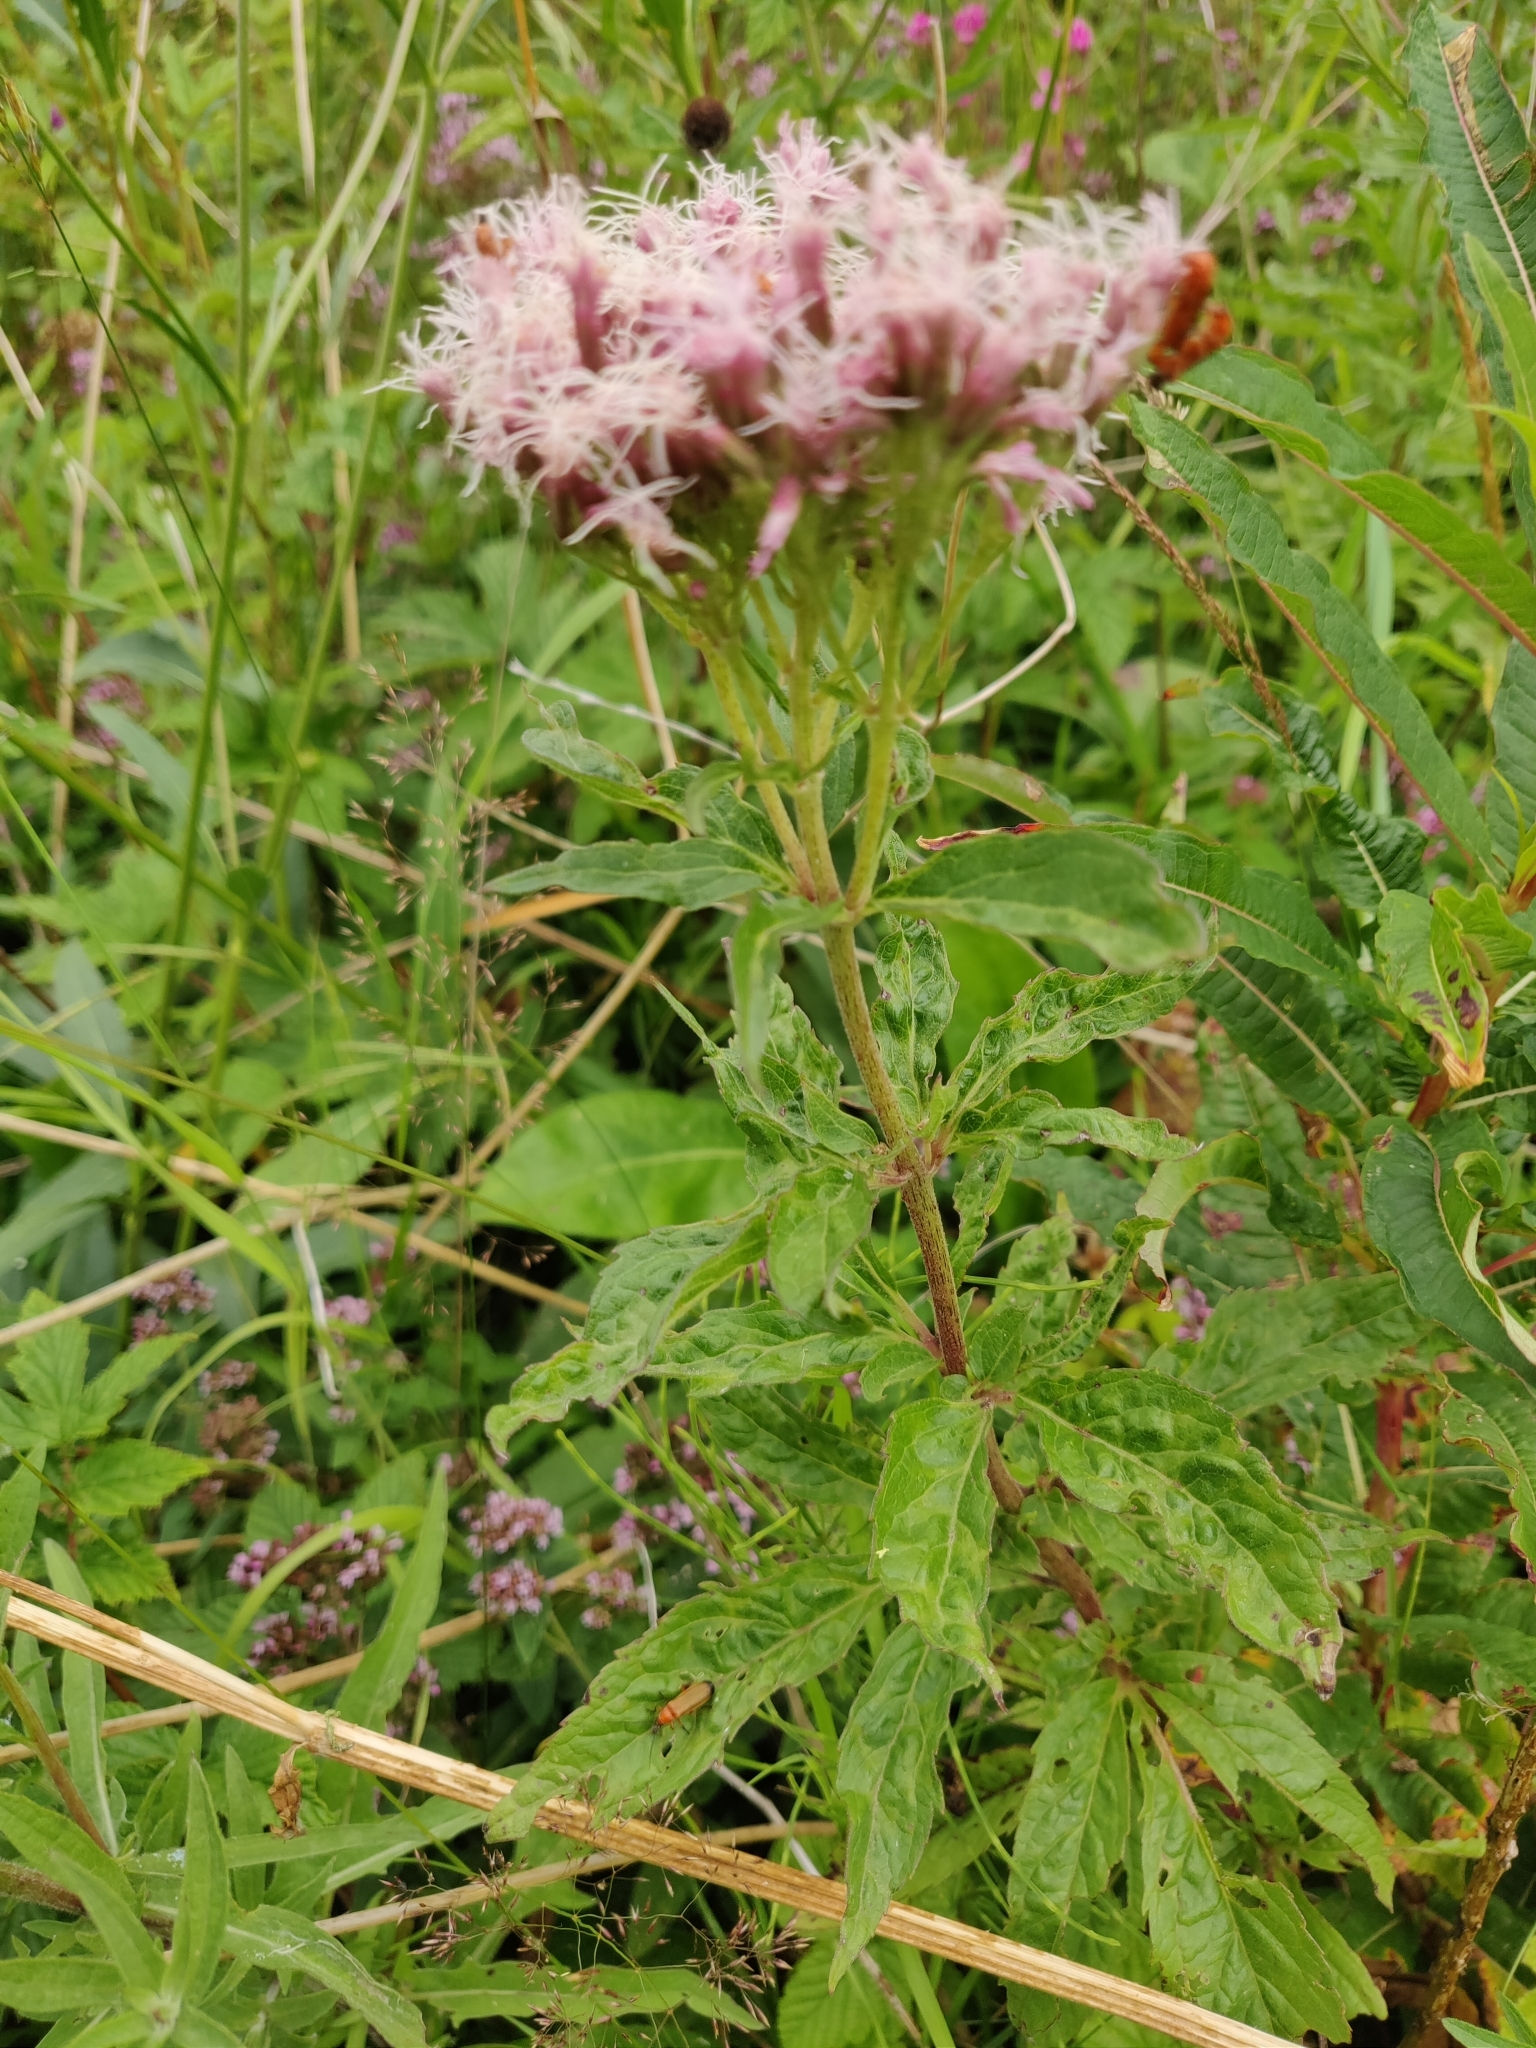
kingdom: Plantae
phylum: Tracheophyta
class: Magnoliopsida
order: Asterales
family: Asteraceae
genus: Eupatorium
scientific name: Eupatorium cannabinum
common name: Hemp-agrimony
